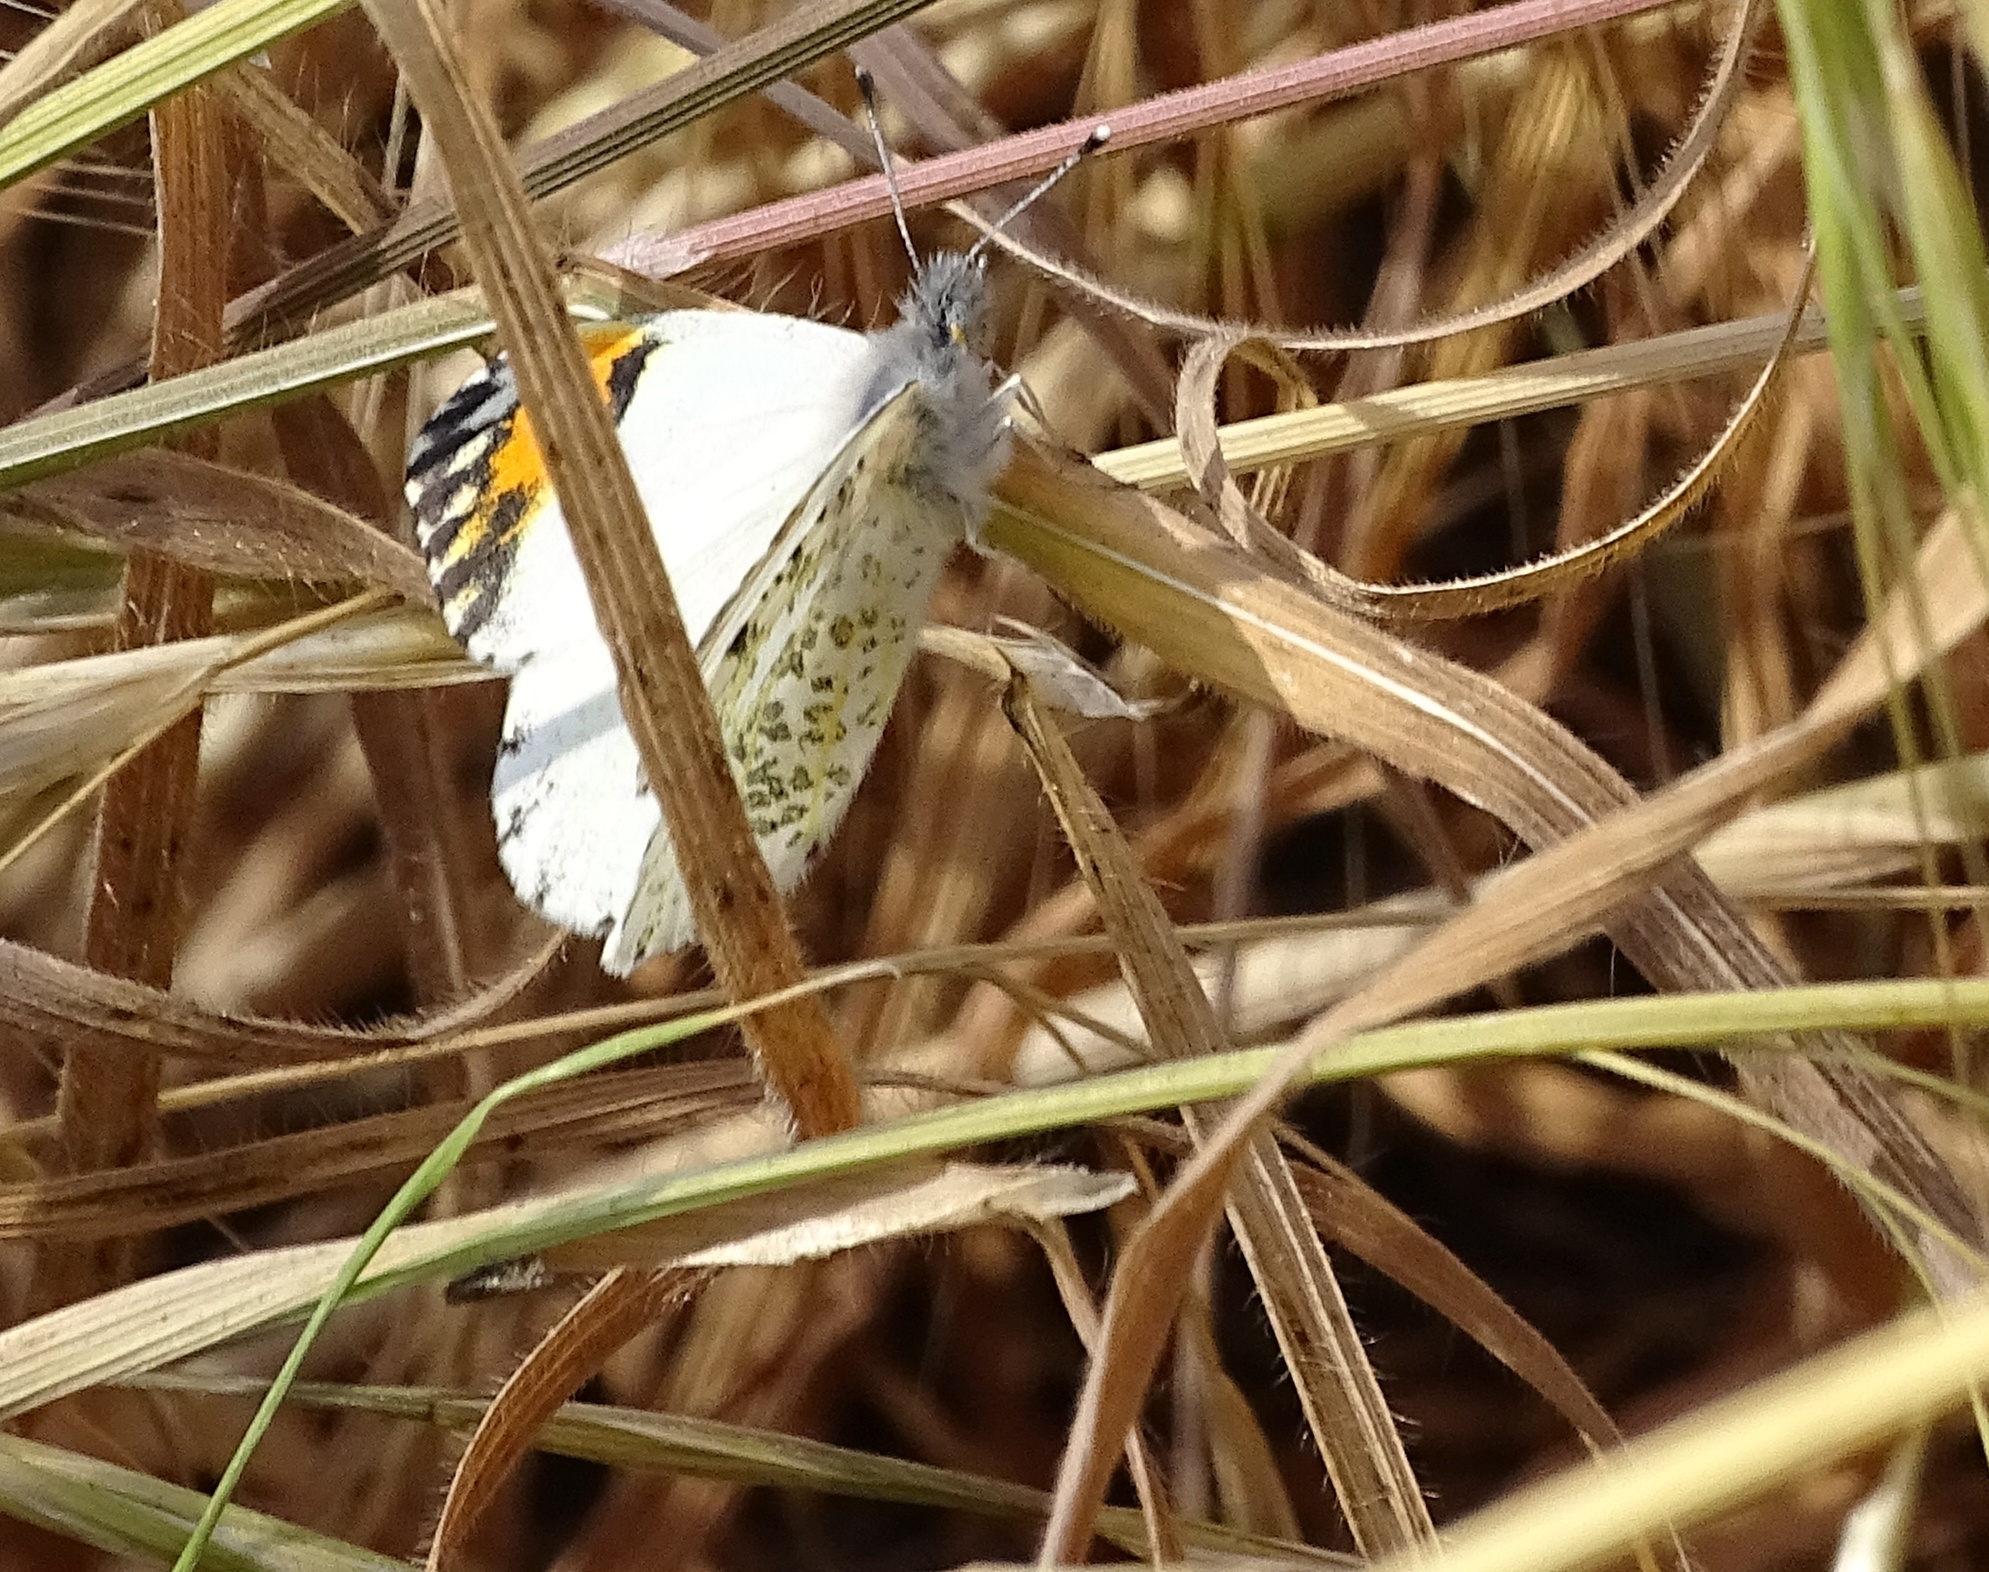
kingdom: Animalia
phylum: Arthropoda
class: Insecta
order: Lepidoptera
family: Pieridae
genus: Anthocharis
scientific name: Anthocharis sara
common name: Sara's orangetip
